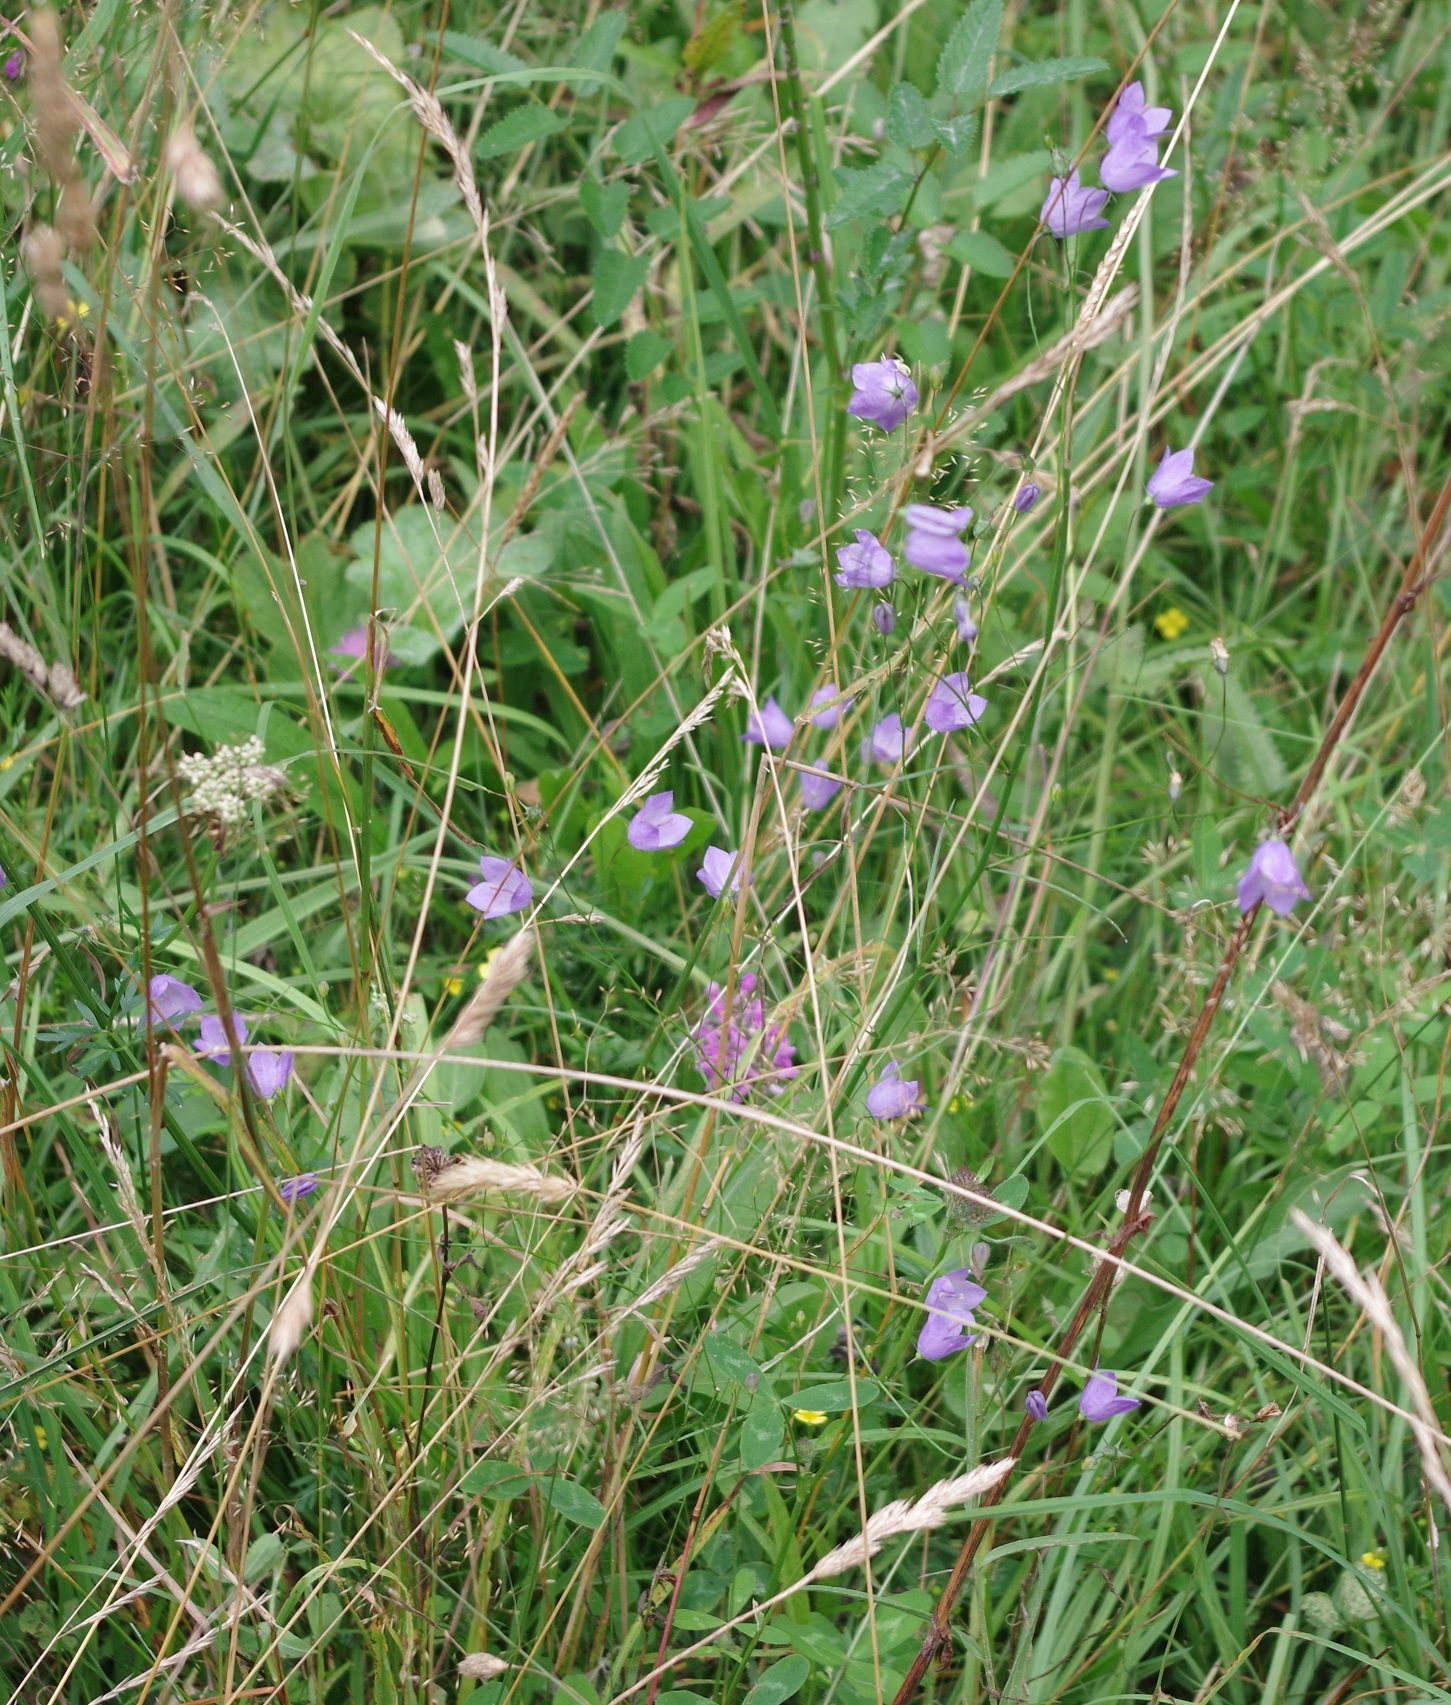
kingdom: Plantae
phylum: Tracheophyta
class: Magnoliopsida
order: Asterales
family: Campanulaceae
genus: Campanula
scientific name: Campanula rotundifolia
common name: Harebell
